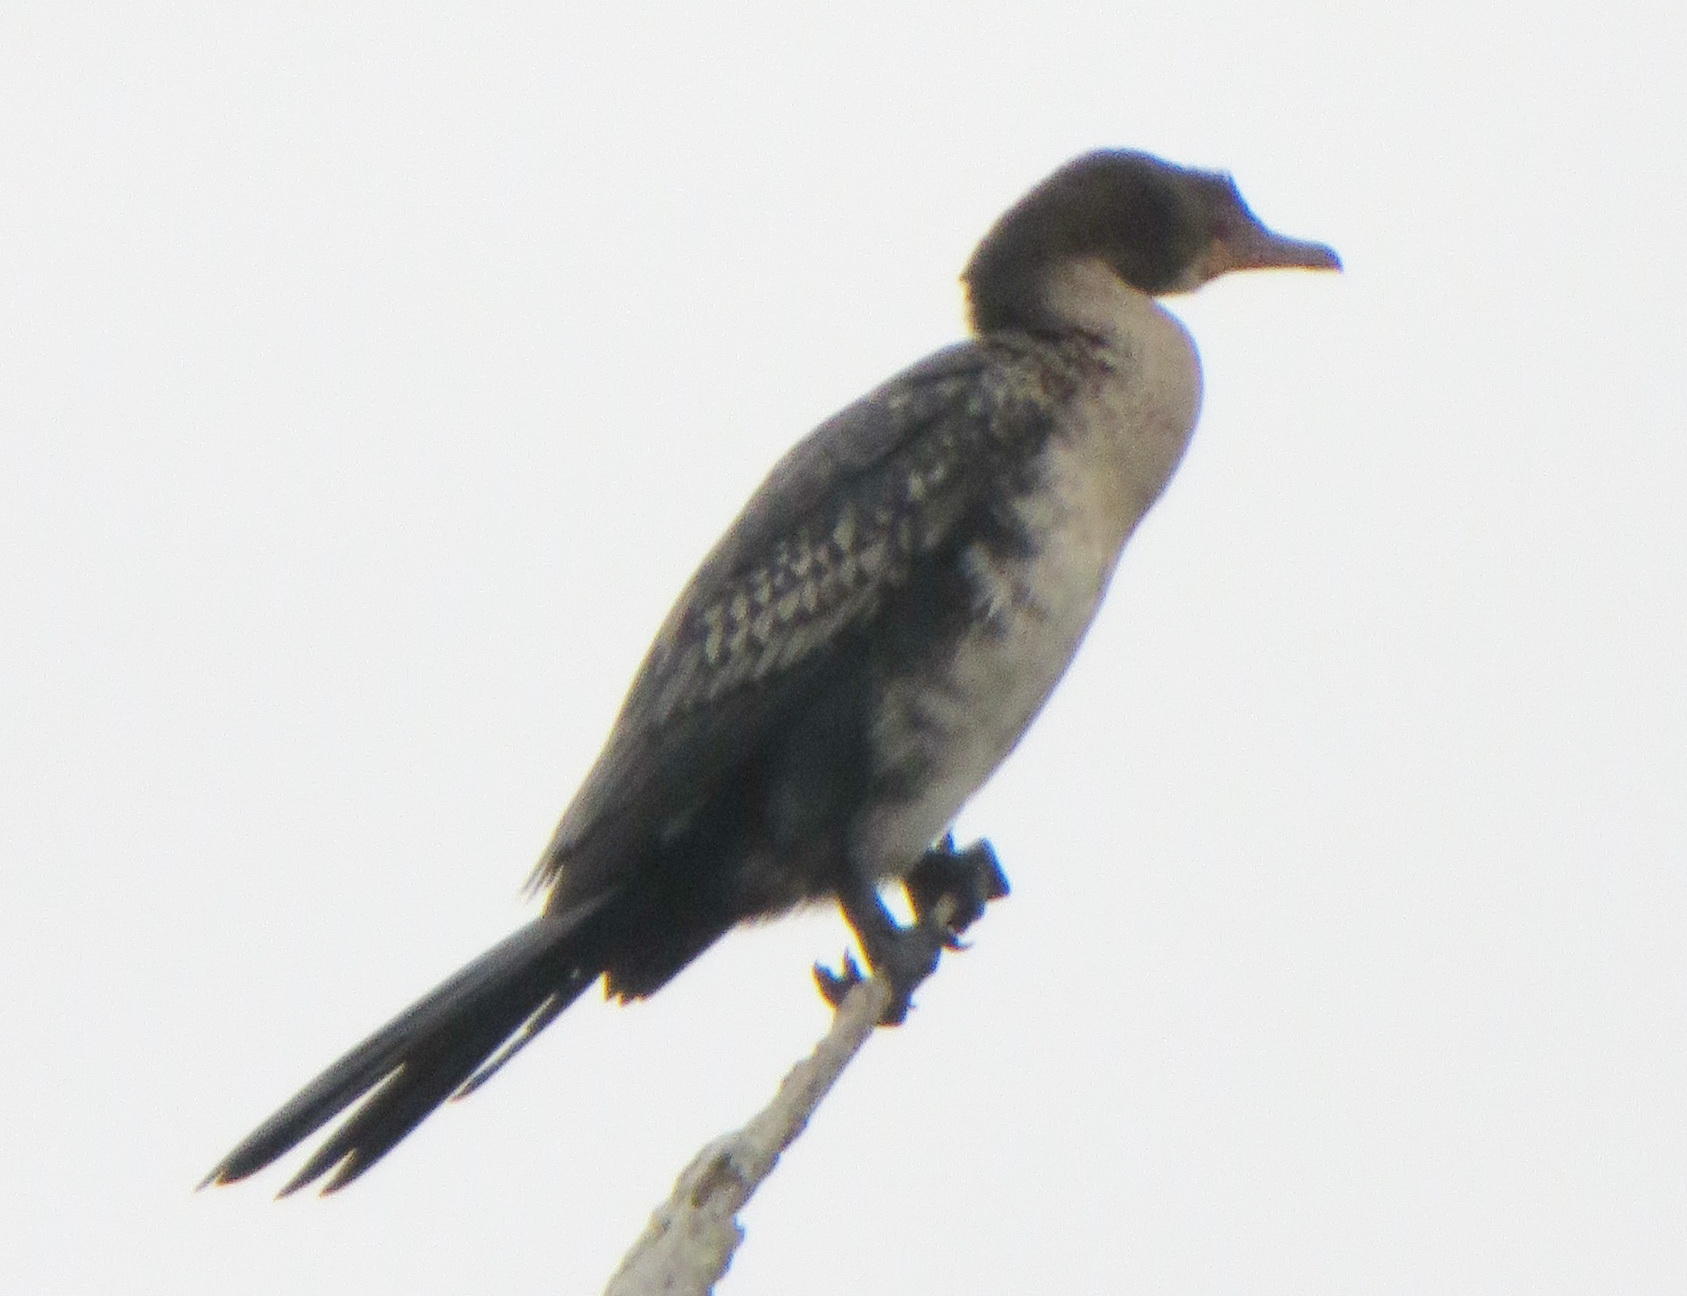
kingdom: Animalia
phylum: Chordata
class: Aves
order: Suliformes
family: Phalacrocoracidae
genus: Microcarbo
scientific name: Microcarbo africanus
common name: Long-tailed cormorant
